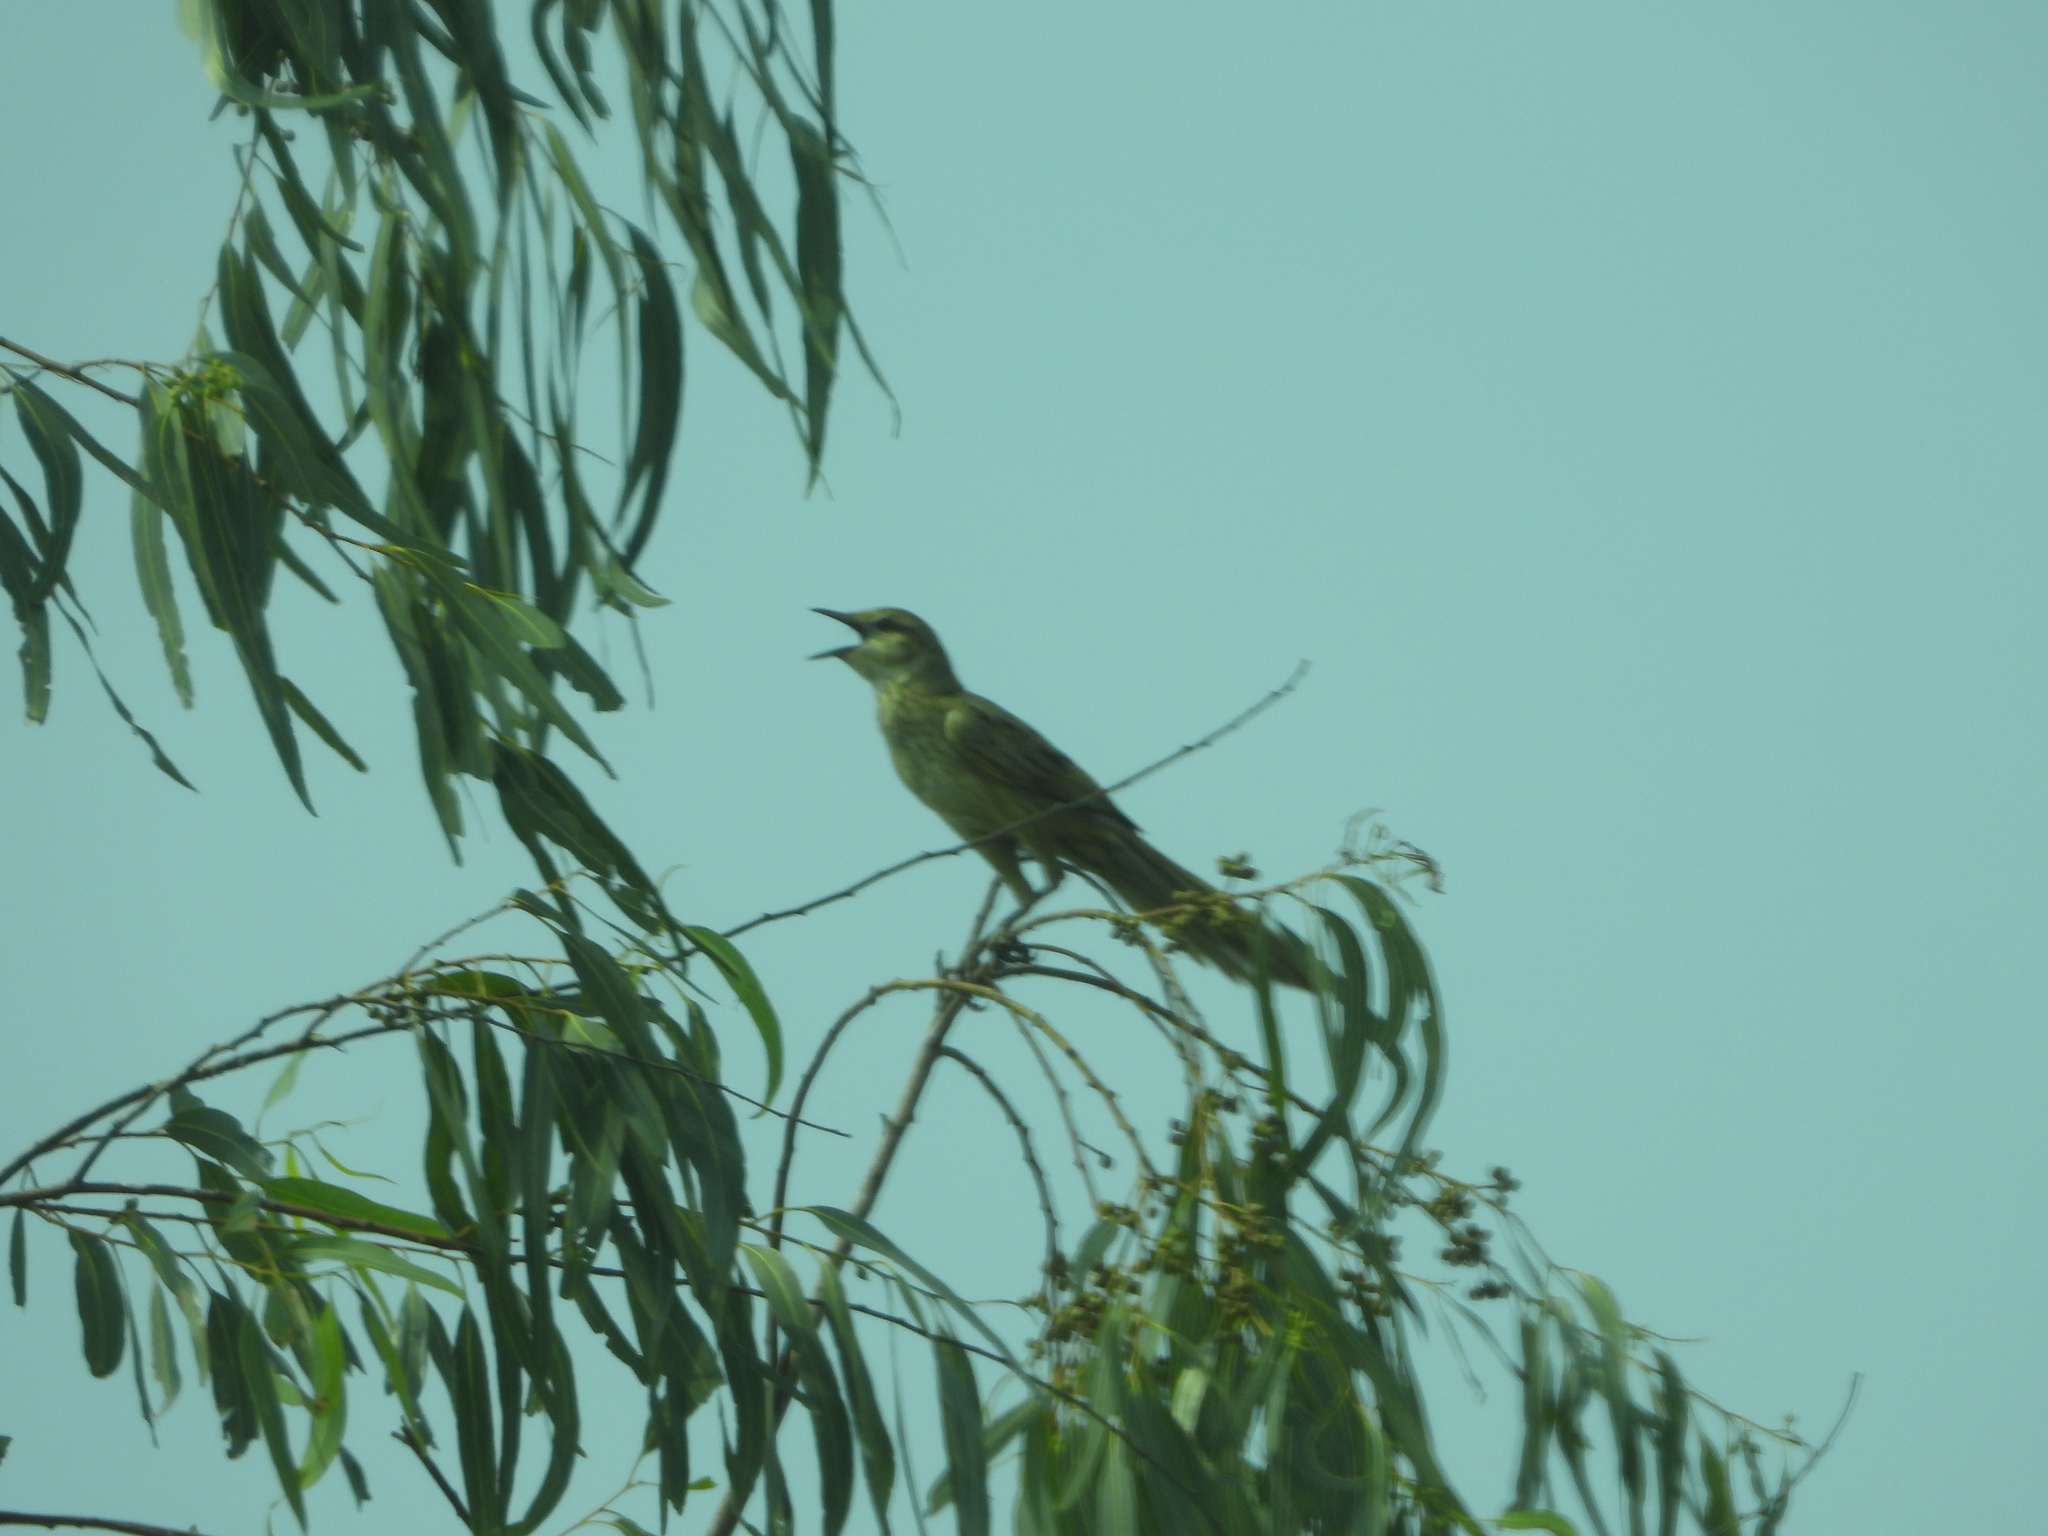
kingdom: Animalia
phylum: Chordata
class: Aves
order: Passeriformes
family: Locustellidae
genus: Megalurus
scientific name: Megalurus palustris
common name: Striated grassbird
